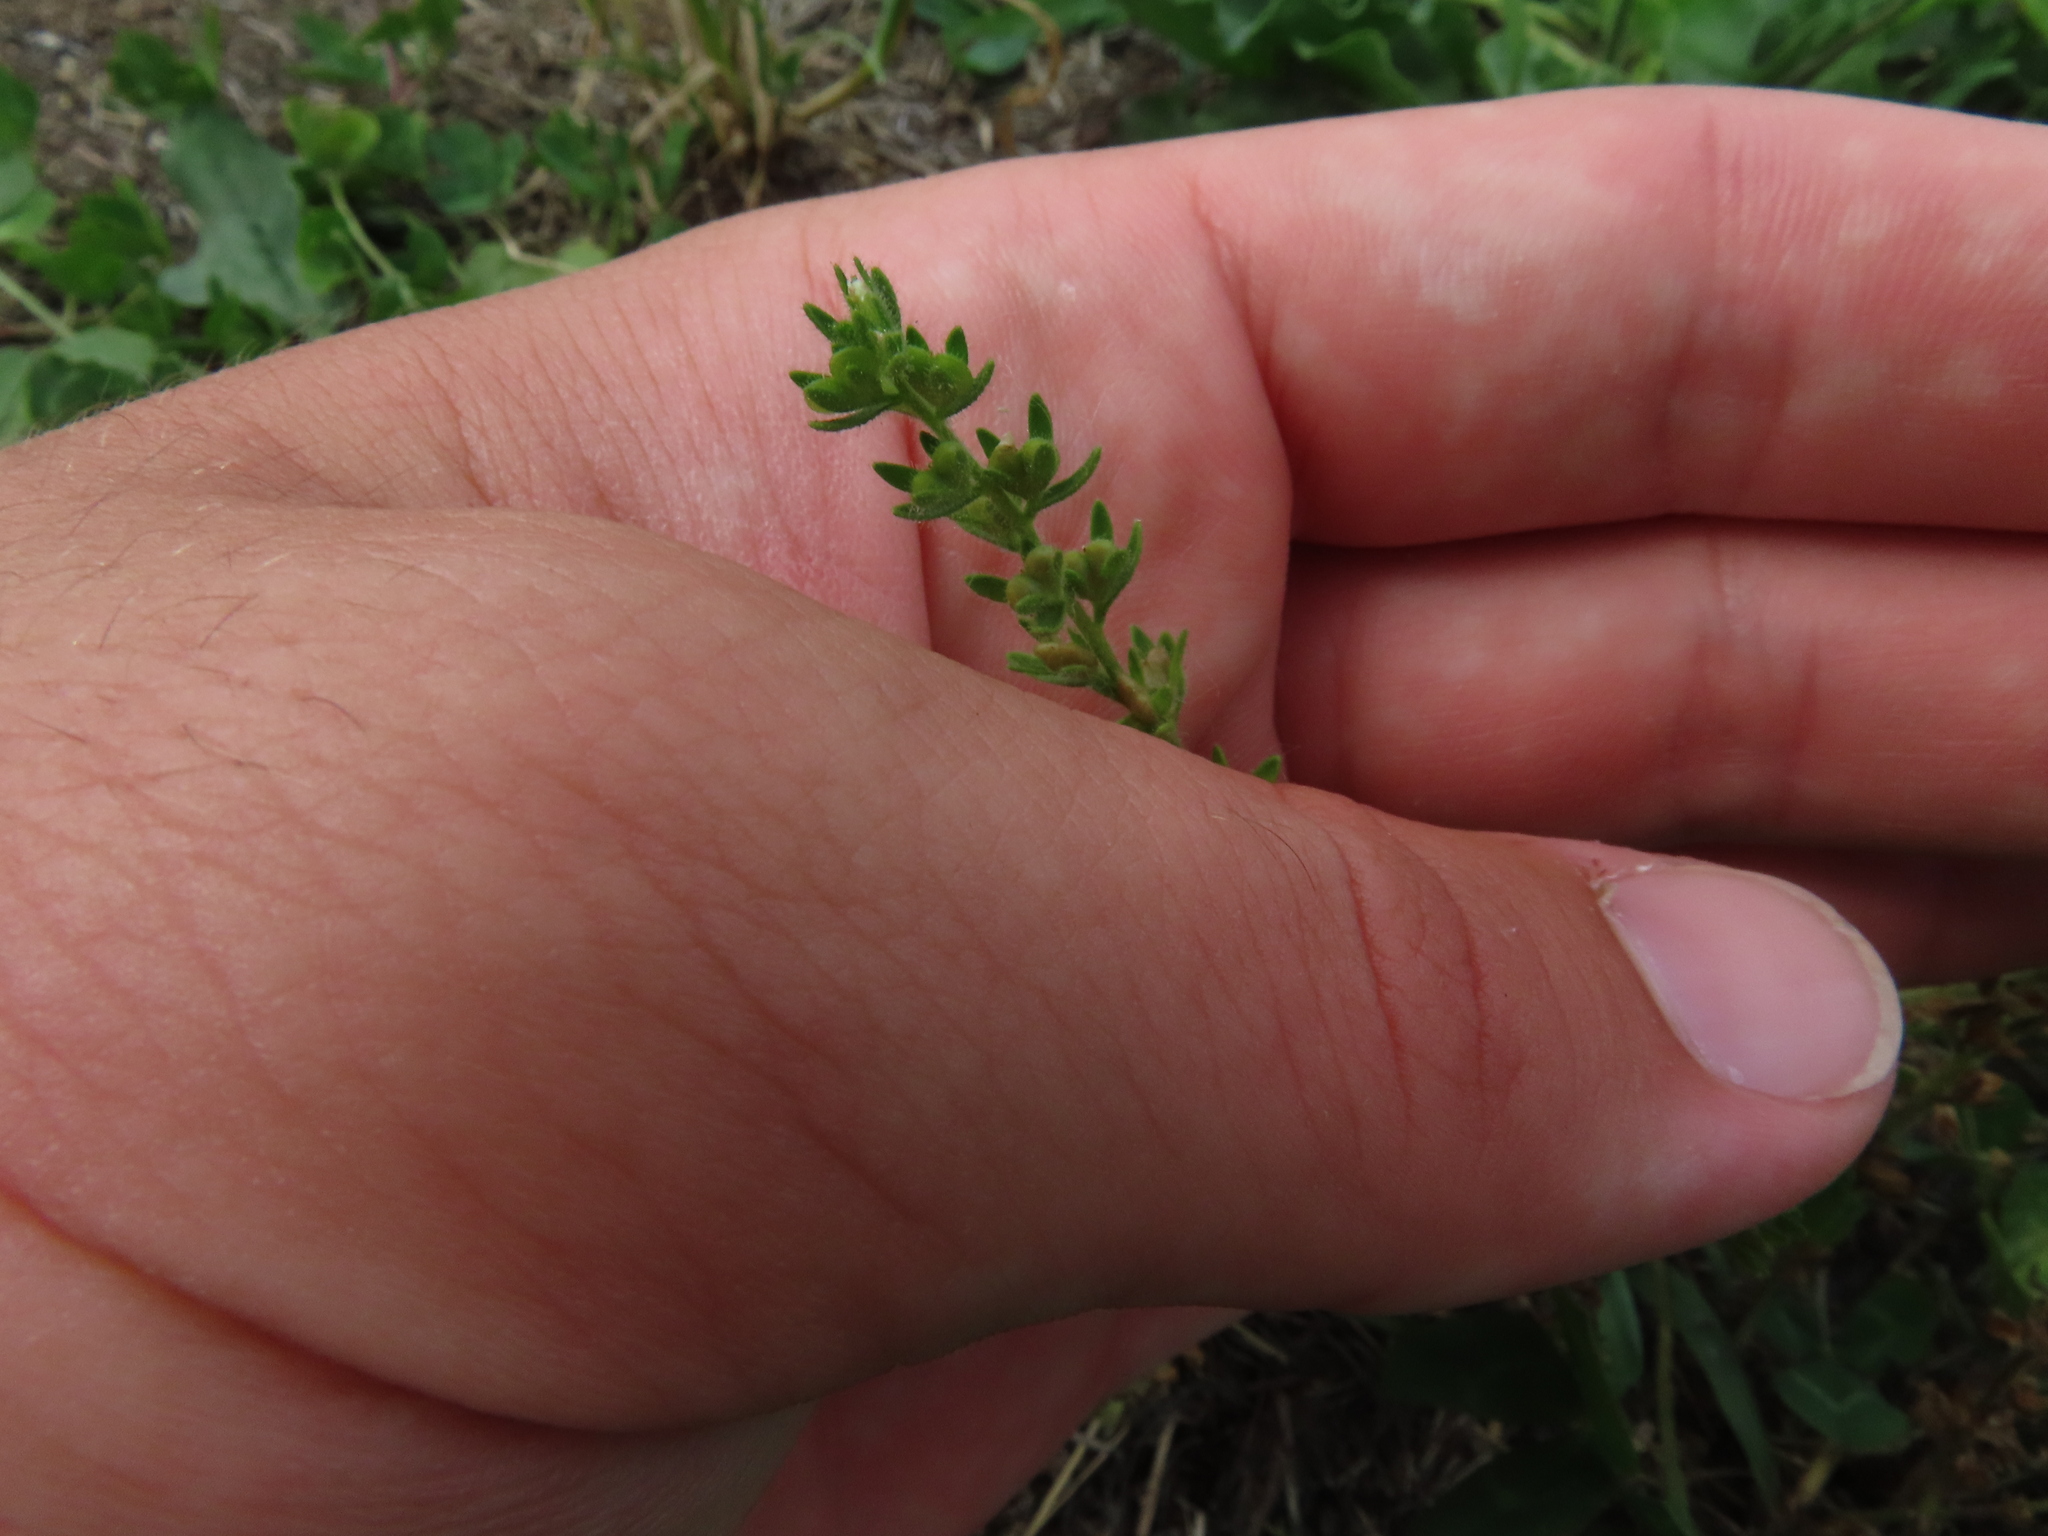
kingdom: Plantae
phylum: Tracheophyta
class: Magnoliopsida
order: Lamiales
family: Plantaginaceae
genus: Veronica
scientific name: Veronica arvensis
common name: Corn speedwell
